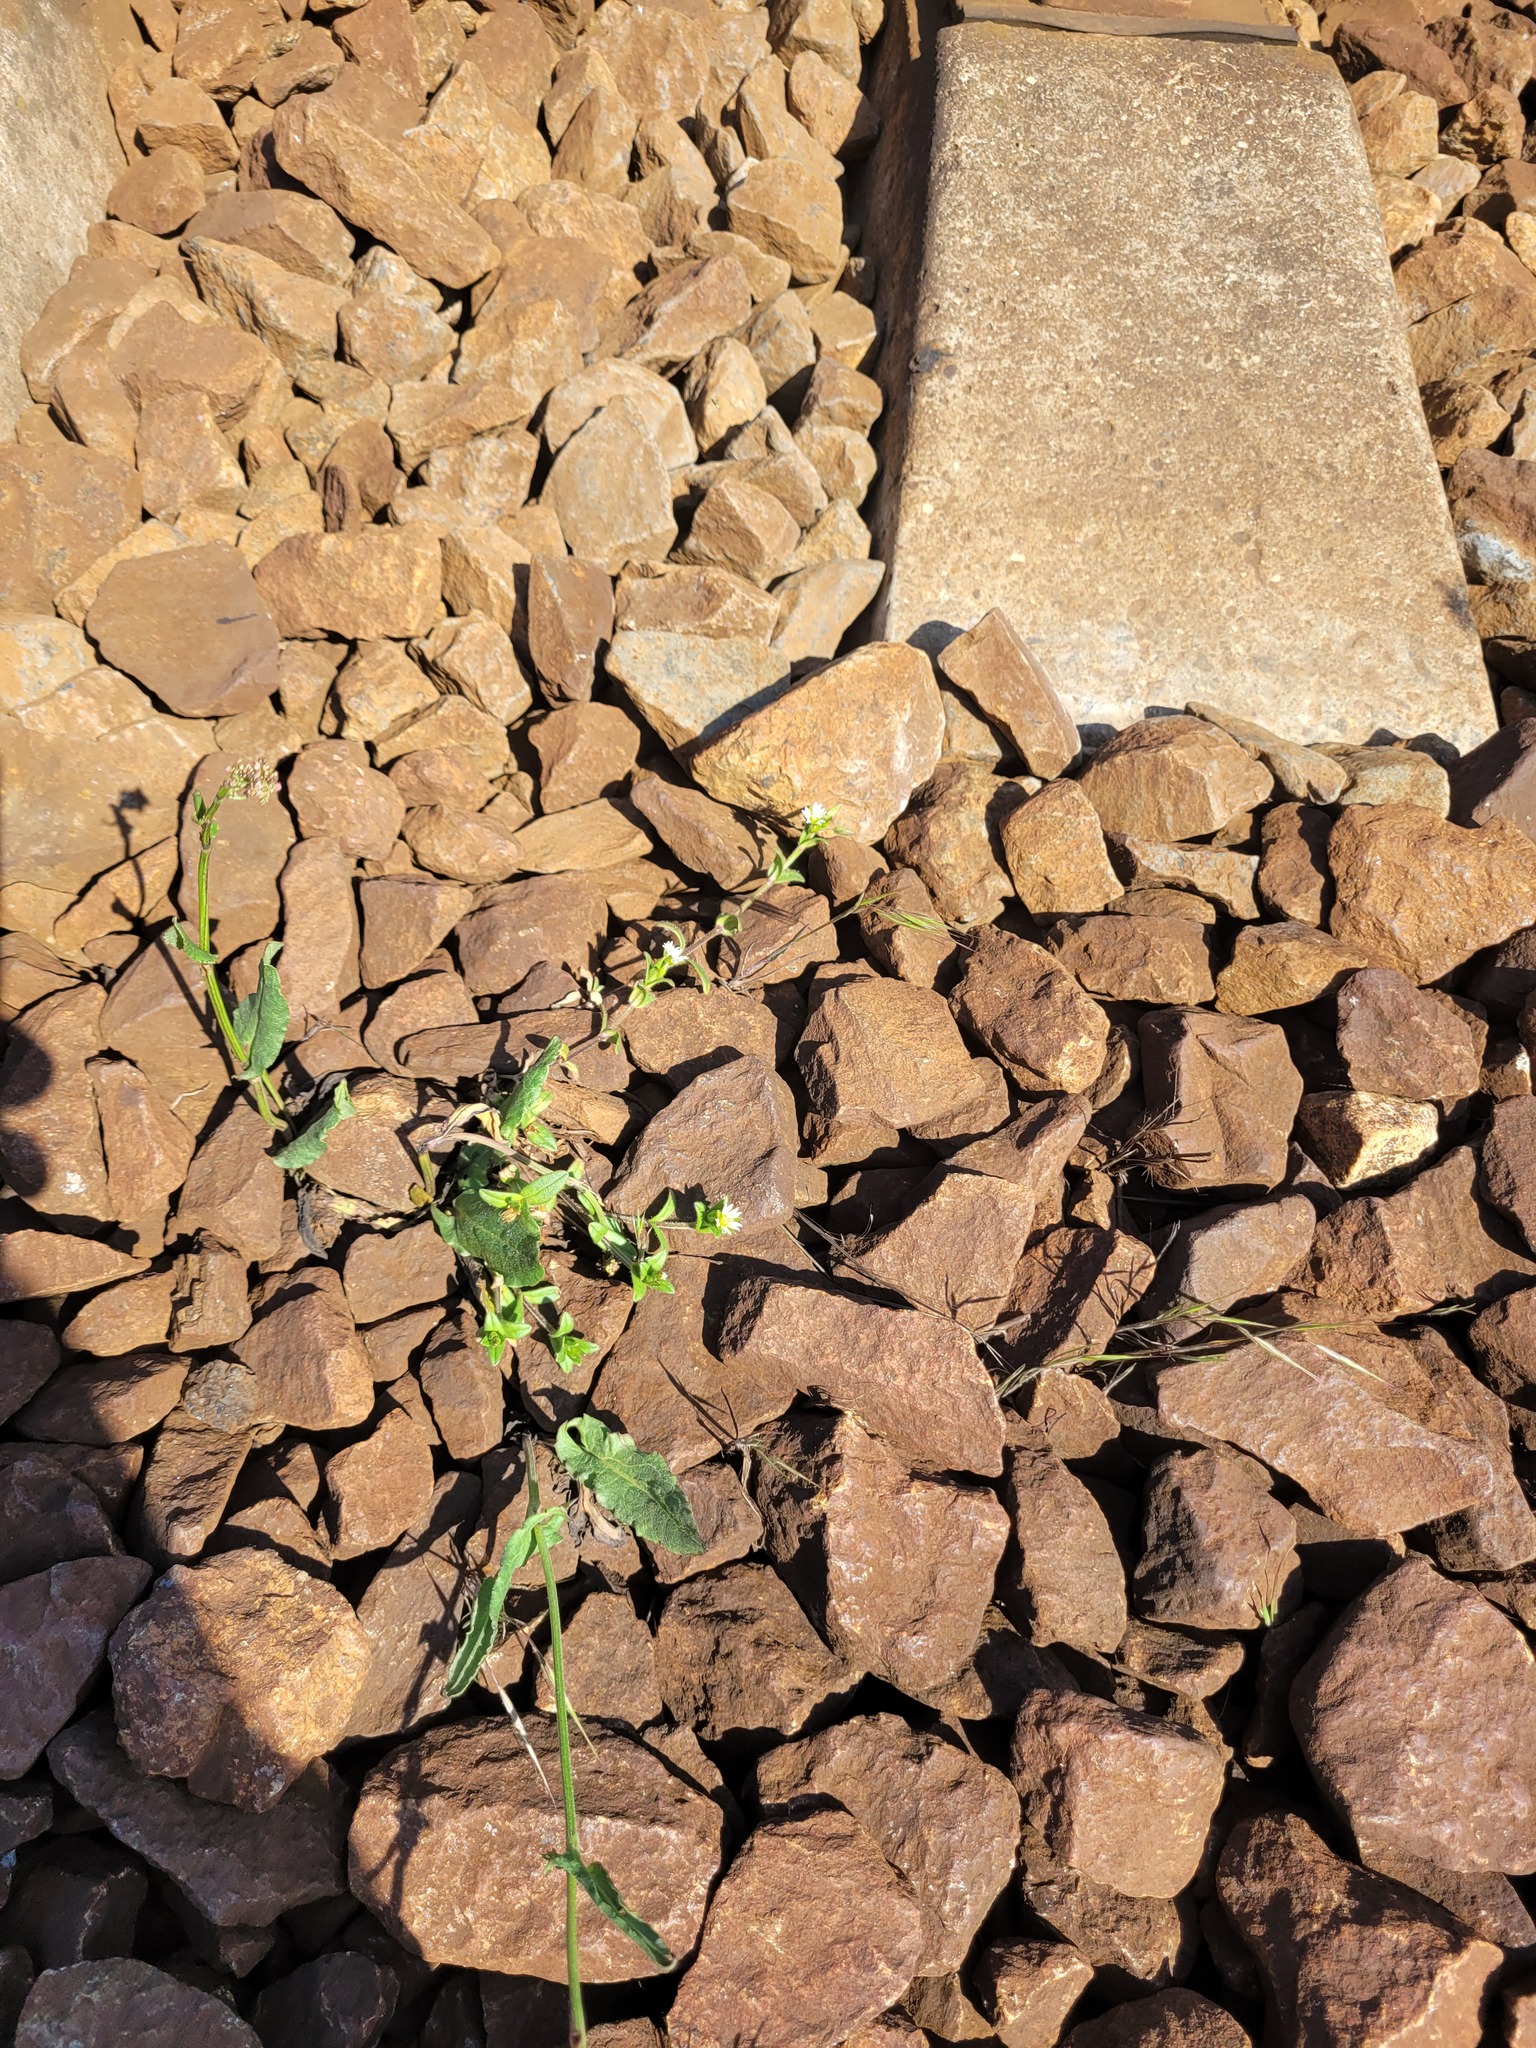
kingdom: Plantae
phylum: Tracheophyta
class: Magnoliopsida
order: Caryophyllales
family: Caryophyllaceae
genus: Cerastium
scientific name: Cerastium holosteoides
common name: Big chickweed
